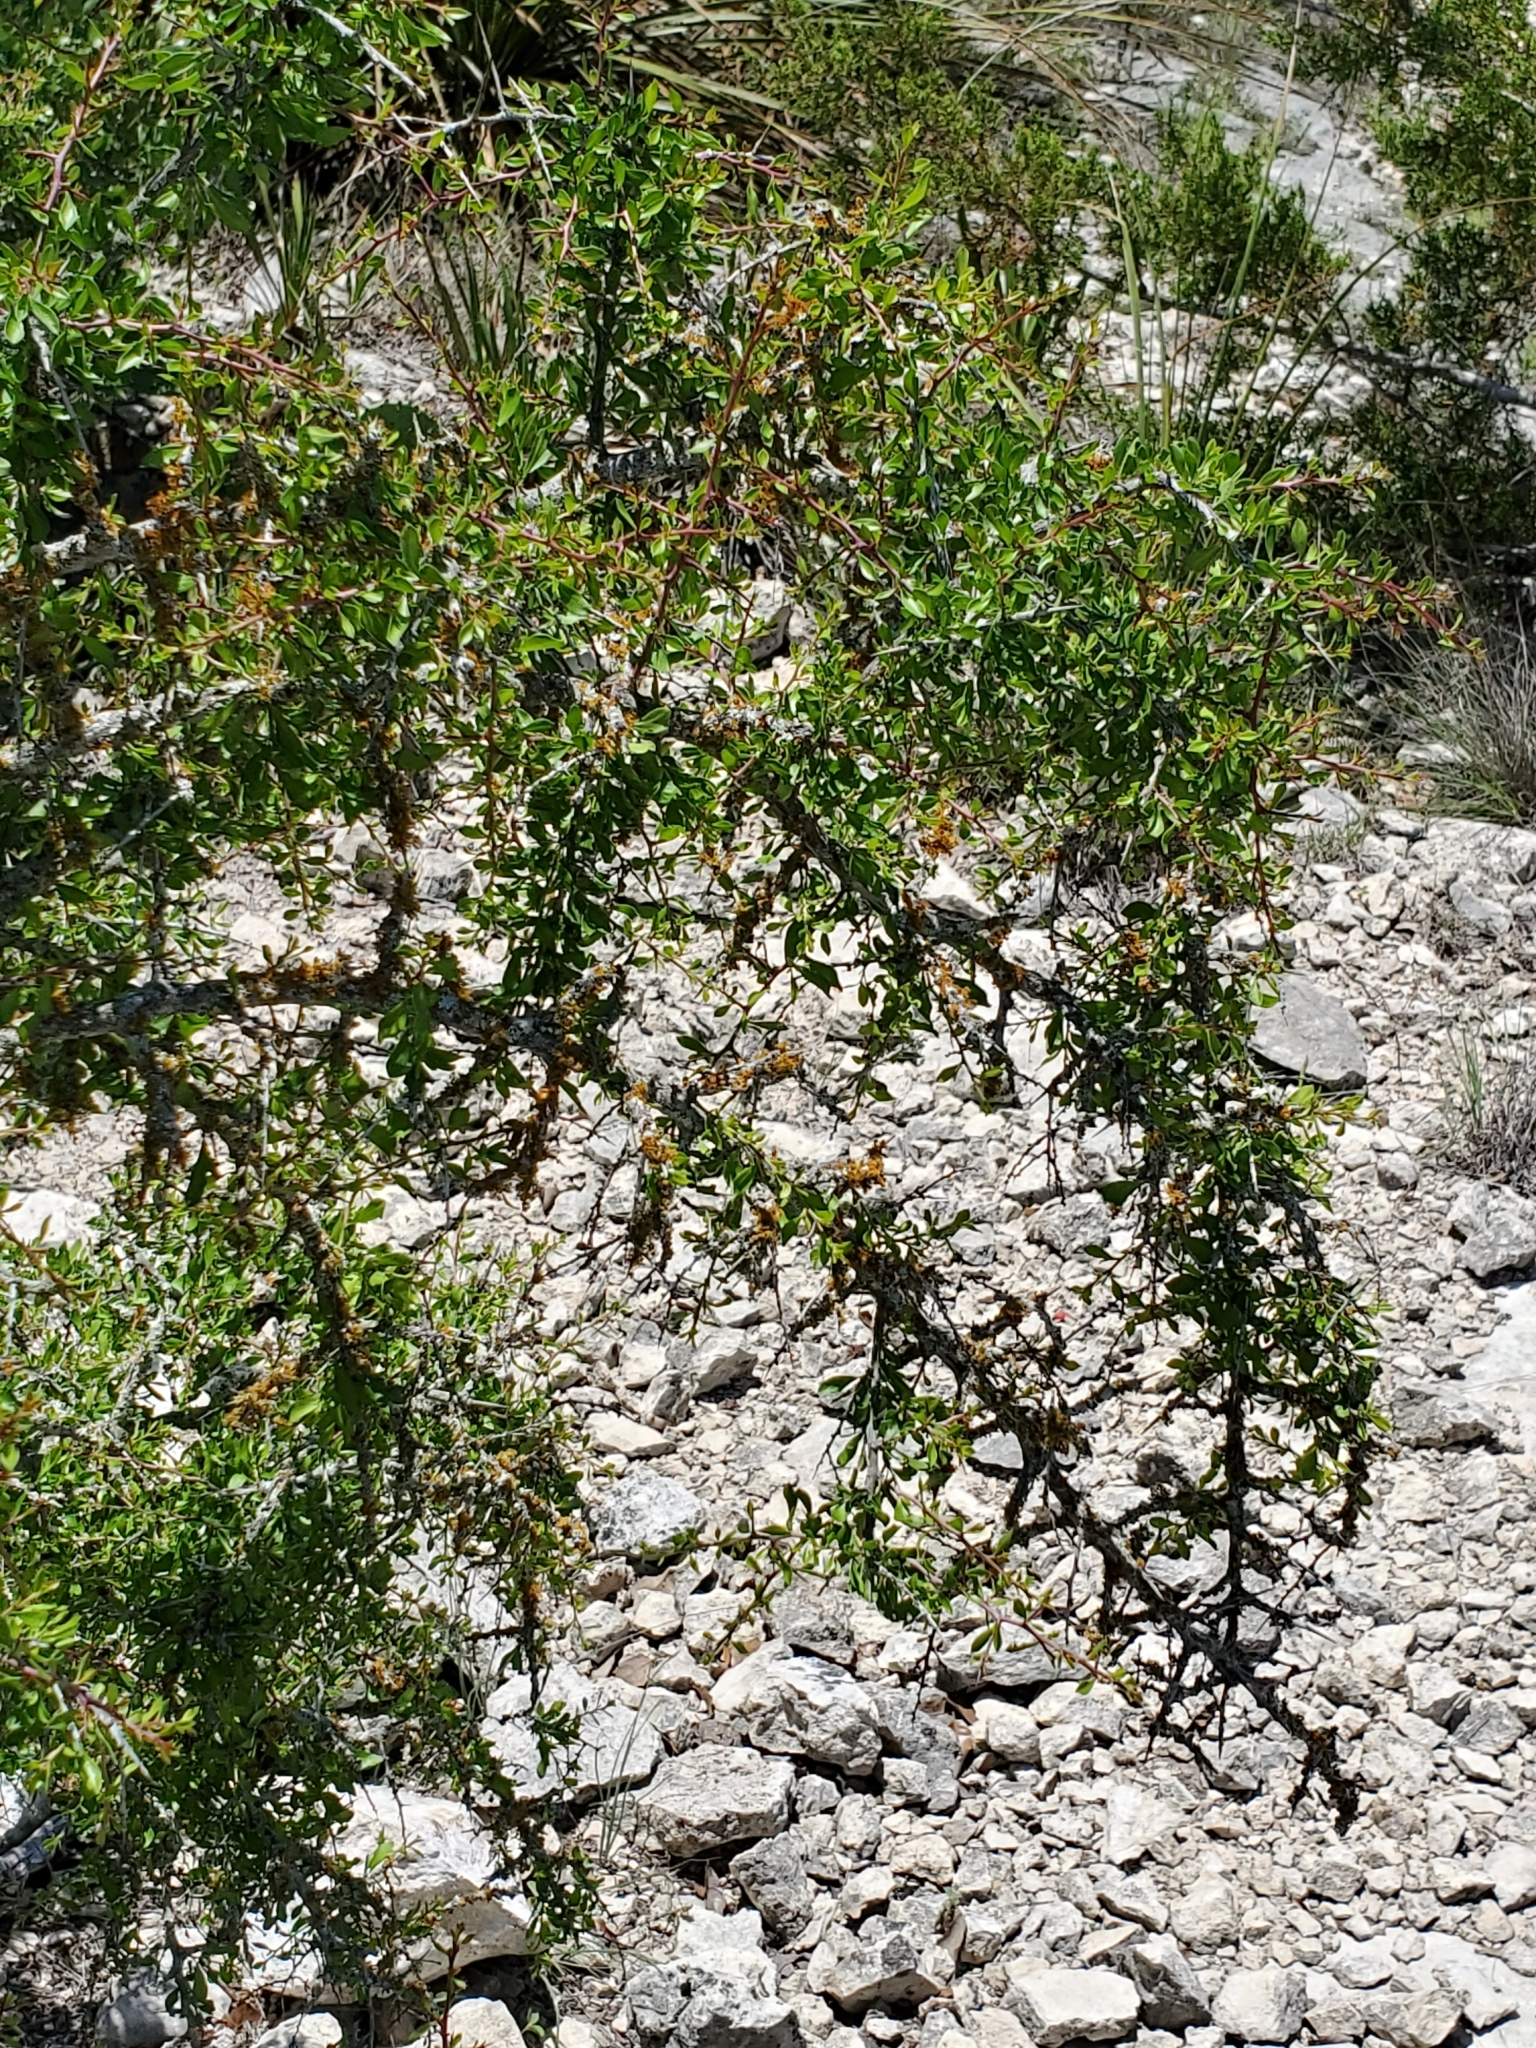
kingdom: Plantae
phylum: Tracheophyta
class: Magnoliopsida
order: Rosales
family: Rhamnaceae
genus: Condalia
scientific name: Condalia viridis
